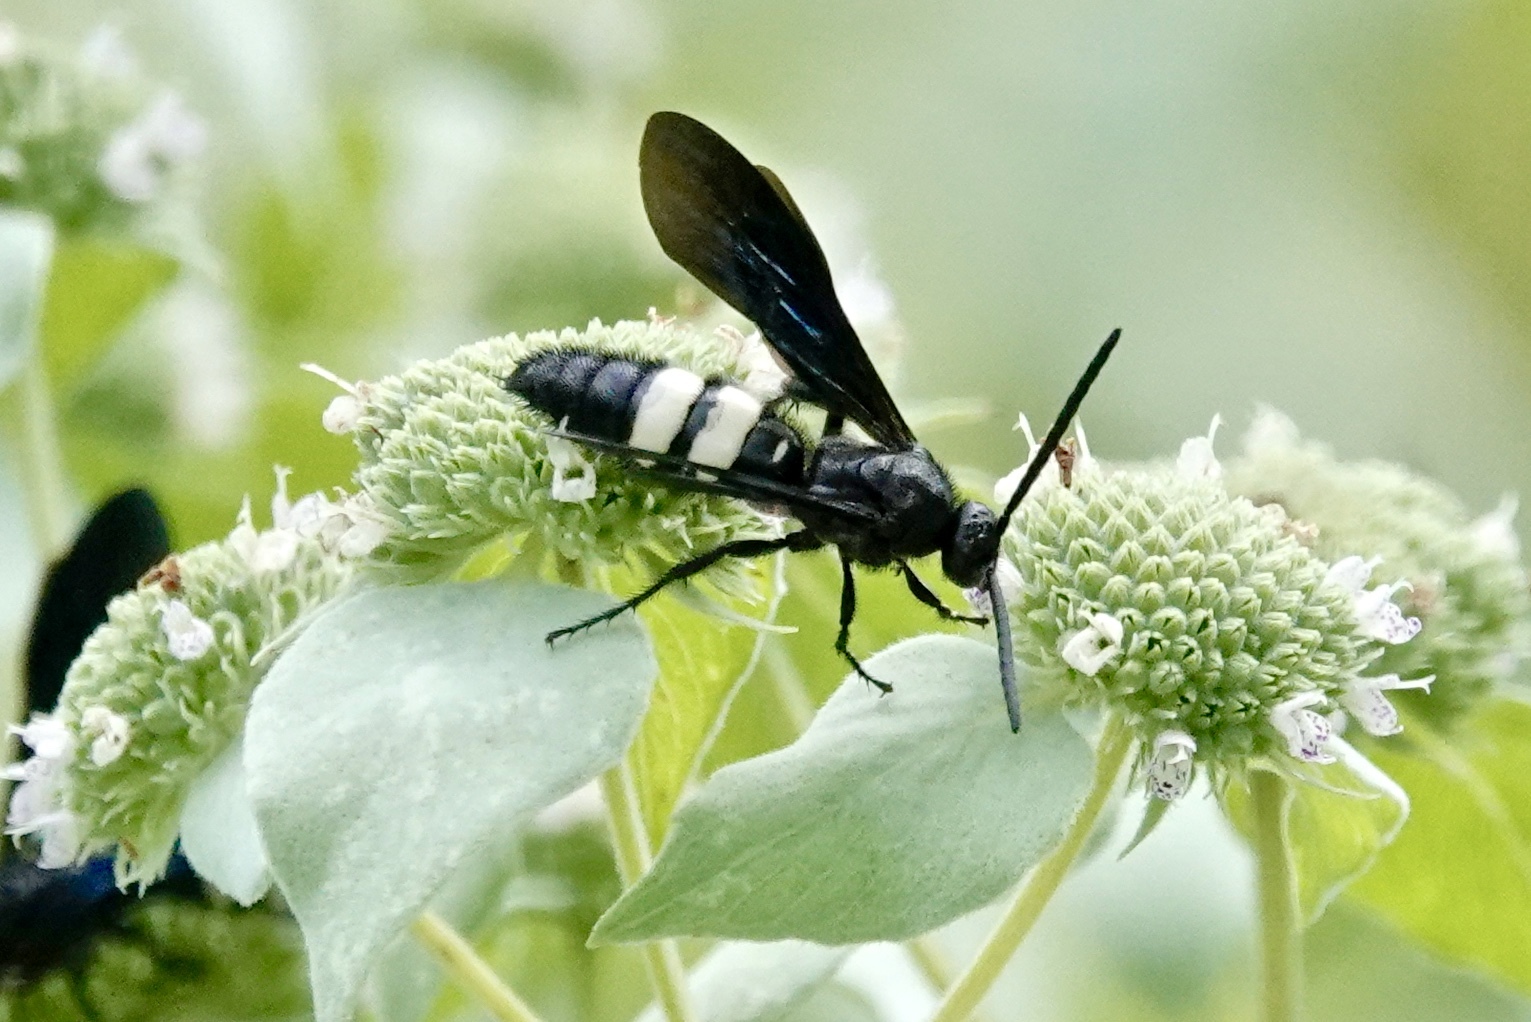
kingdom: Animalia
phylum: Arthropoda
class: Insecta
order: Hymenoptera
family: Scoliidae
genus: Scolia
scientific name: Scolia bicincta
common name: Double-banded scoliid wasp
